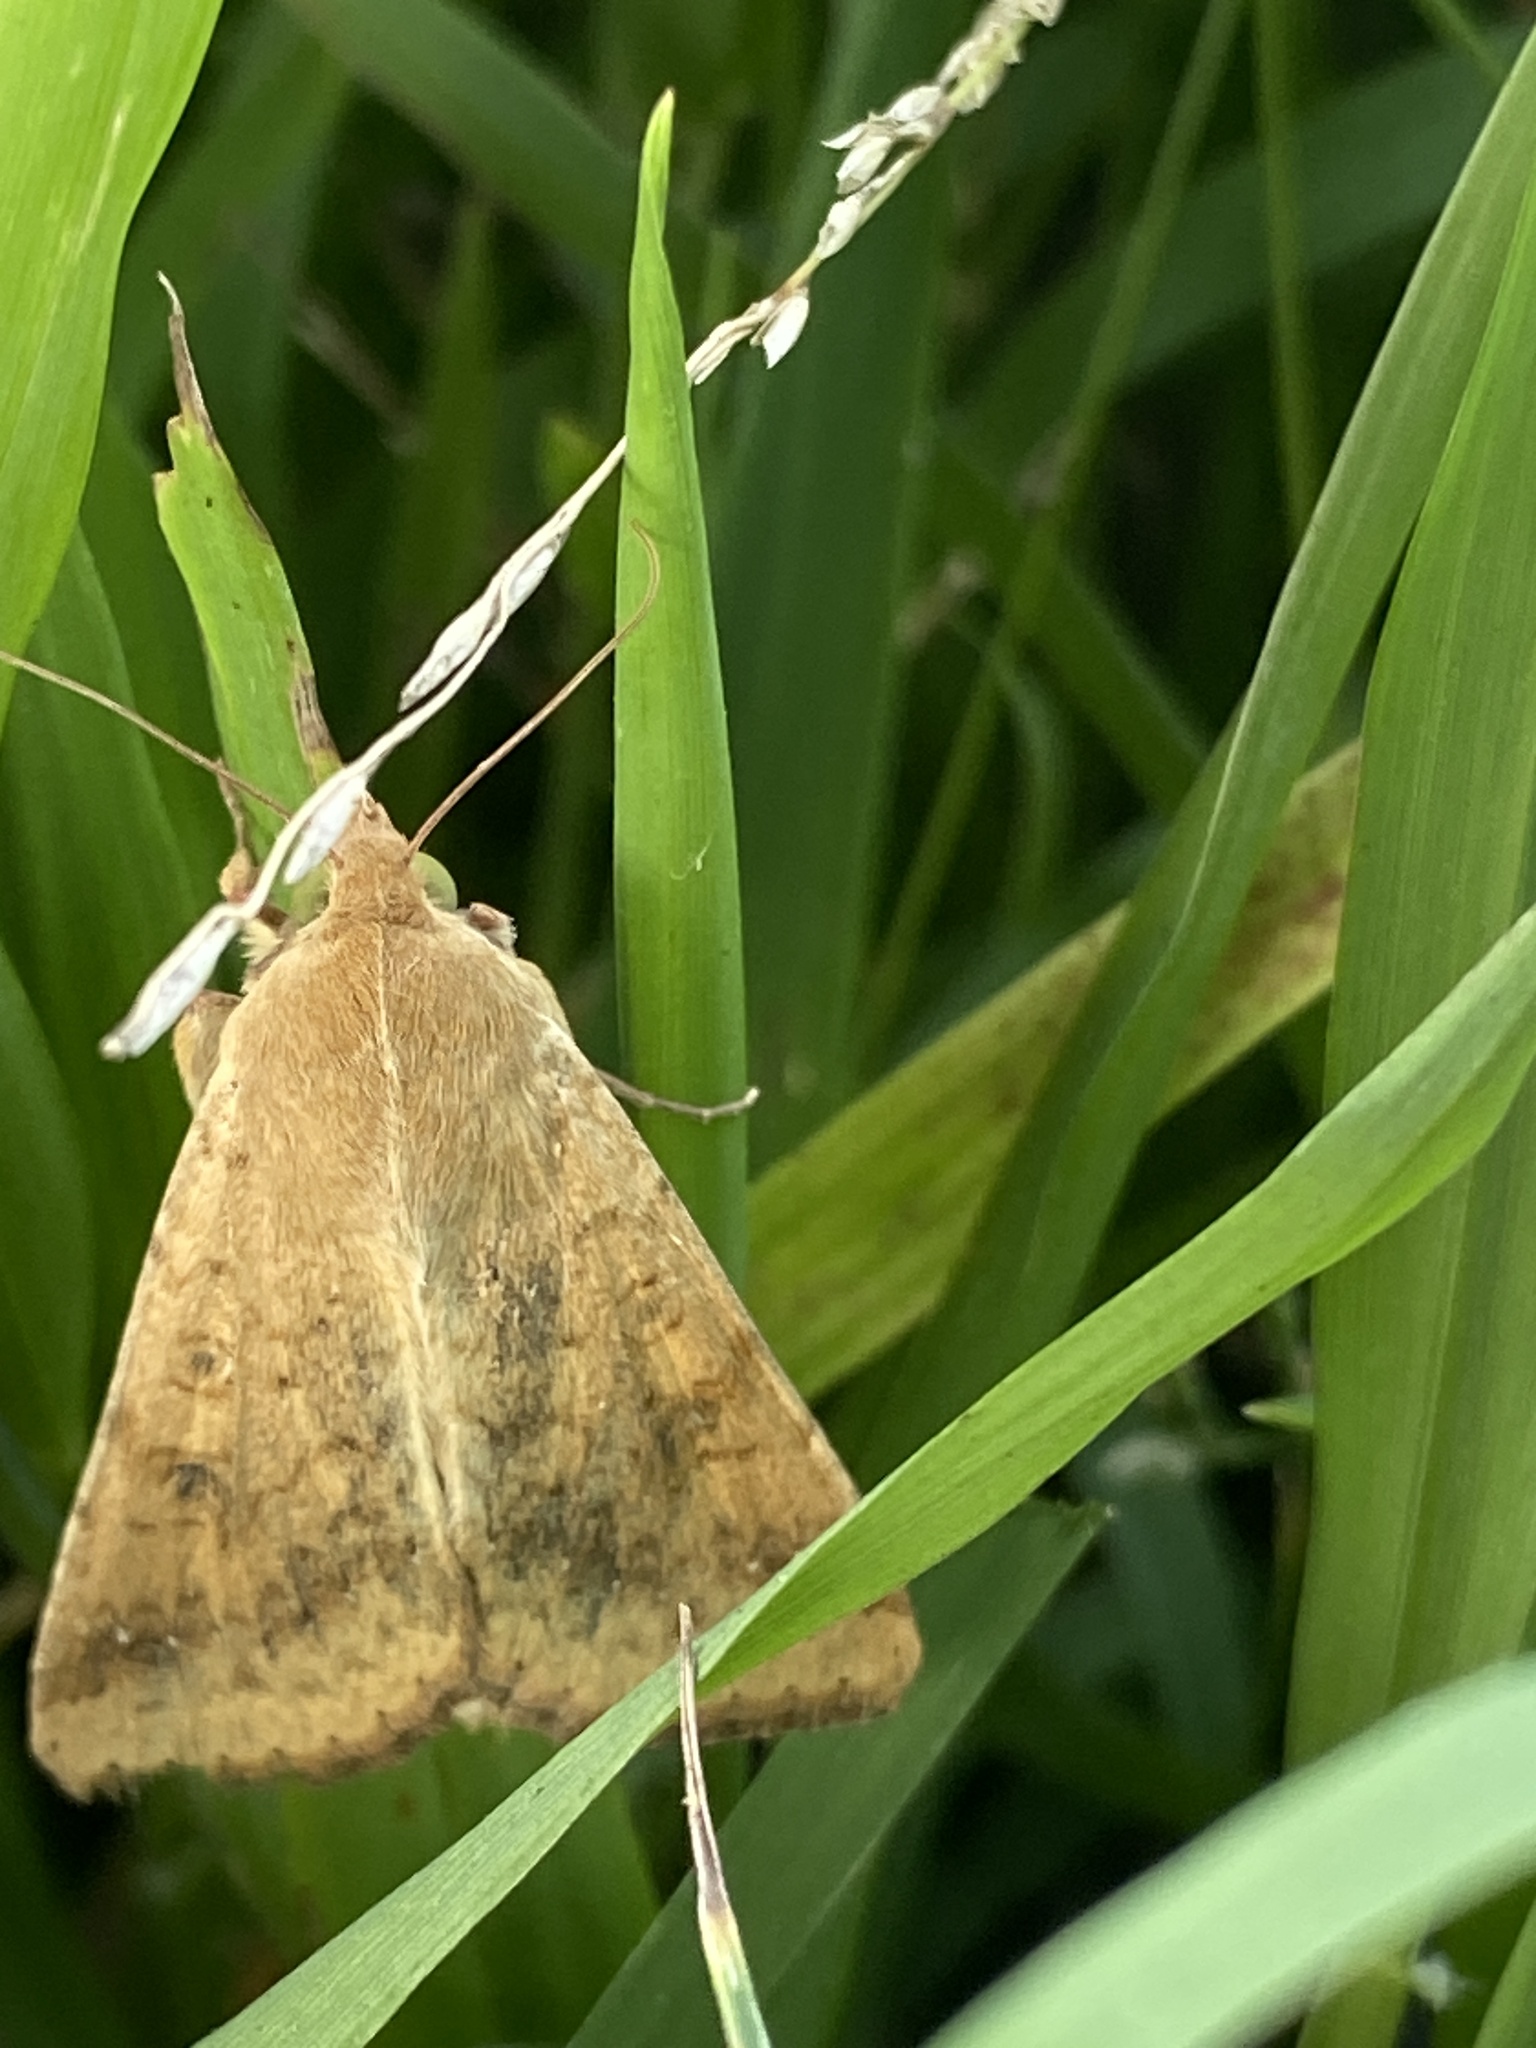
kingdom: Animalia
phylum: Arthropoda
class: Insecta
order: Lepidoptera
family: Noctuidae
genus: Helicoverpa
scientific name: Helicoverpa zea
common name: Bollworm
